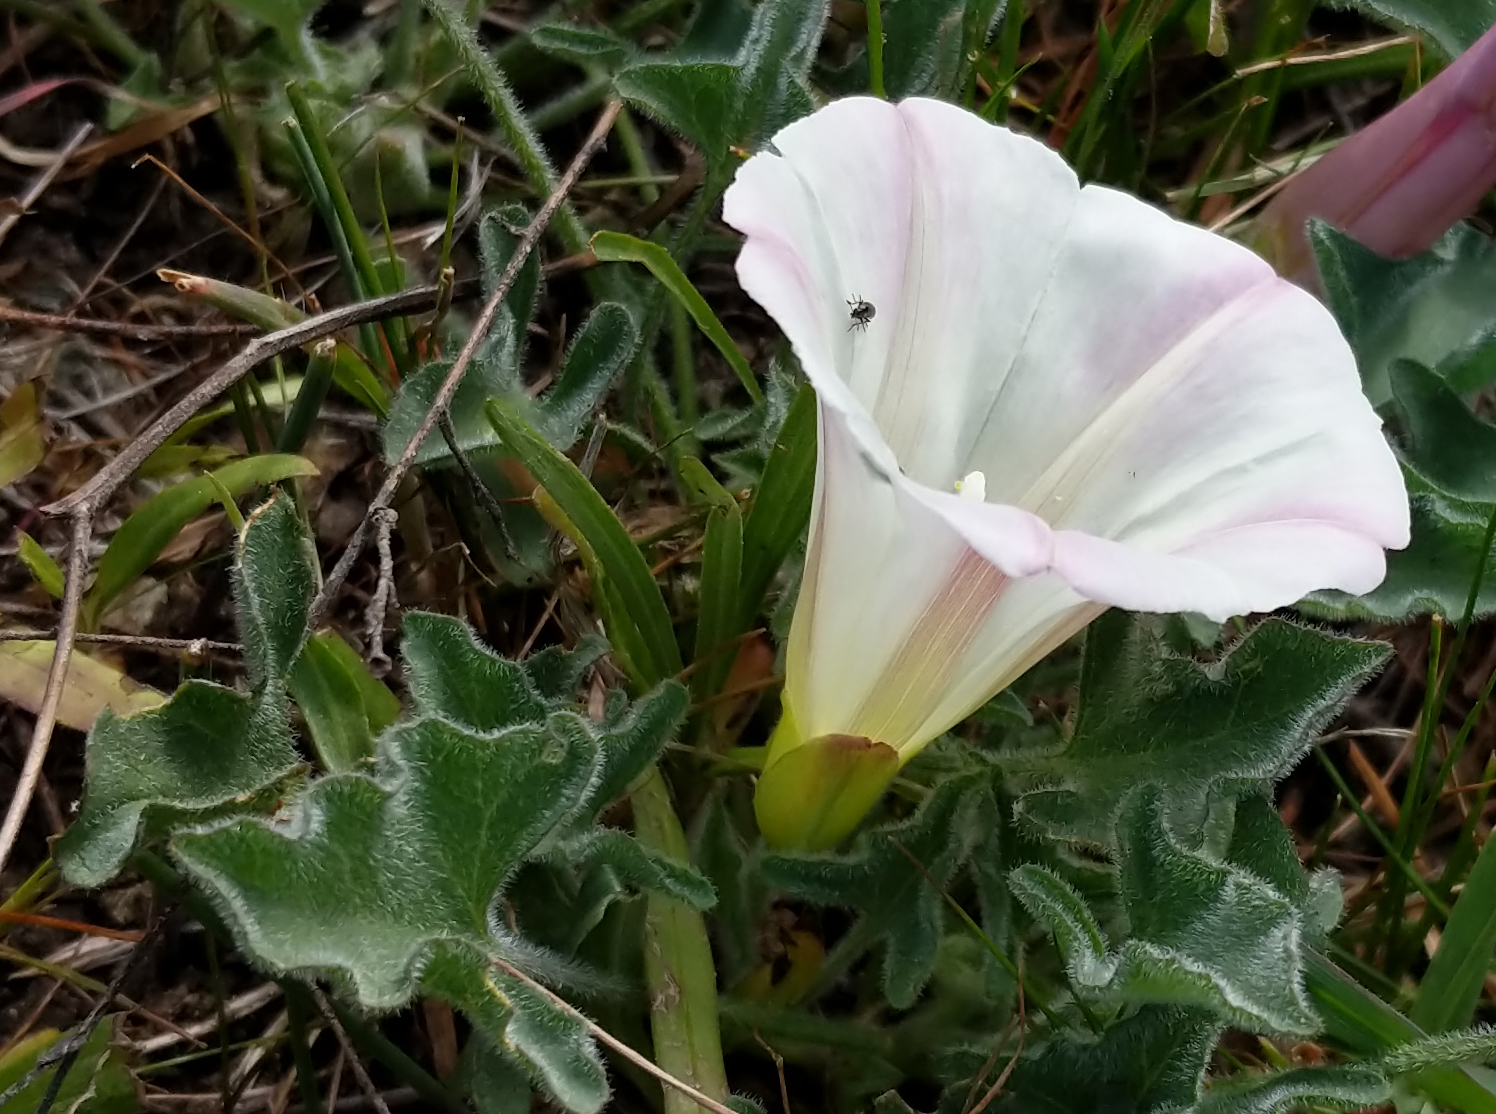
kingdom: Plantae
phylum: Tracheophyta
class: Magnoliopsida
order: Solanales
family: Convolvulaceae
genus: Calystegia
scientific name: Calystegia collina
